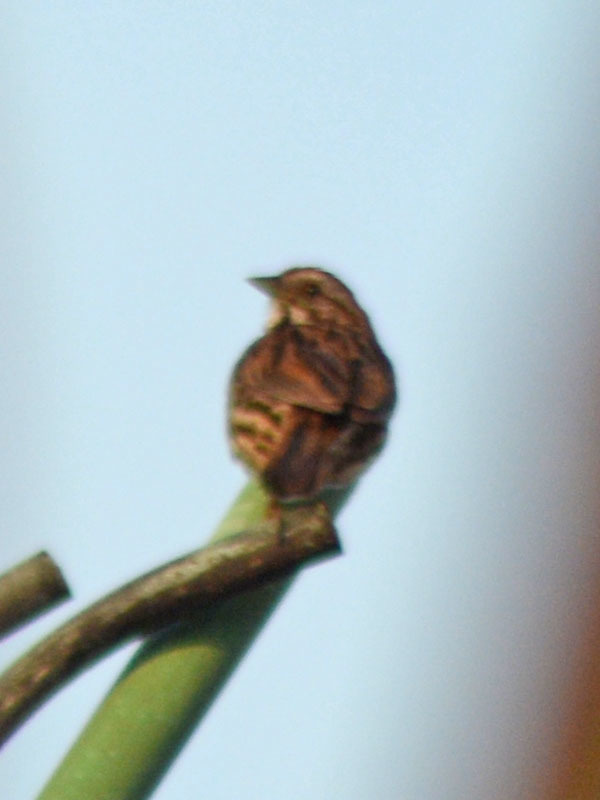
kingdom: Animalia
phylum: Chordata
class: Aves
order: Passeriformes
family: Passerellidae
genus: Melospiza
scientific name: Melospiza melodia
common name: Song sparrow
